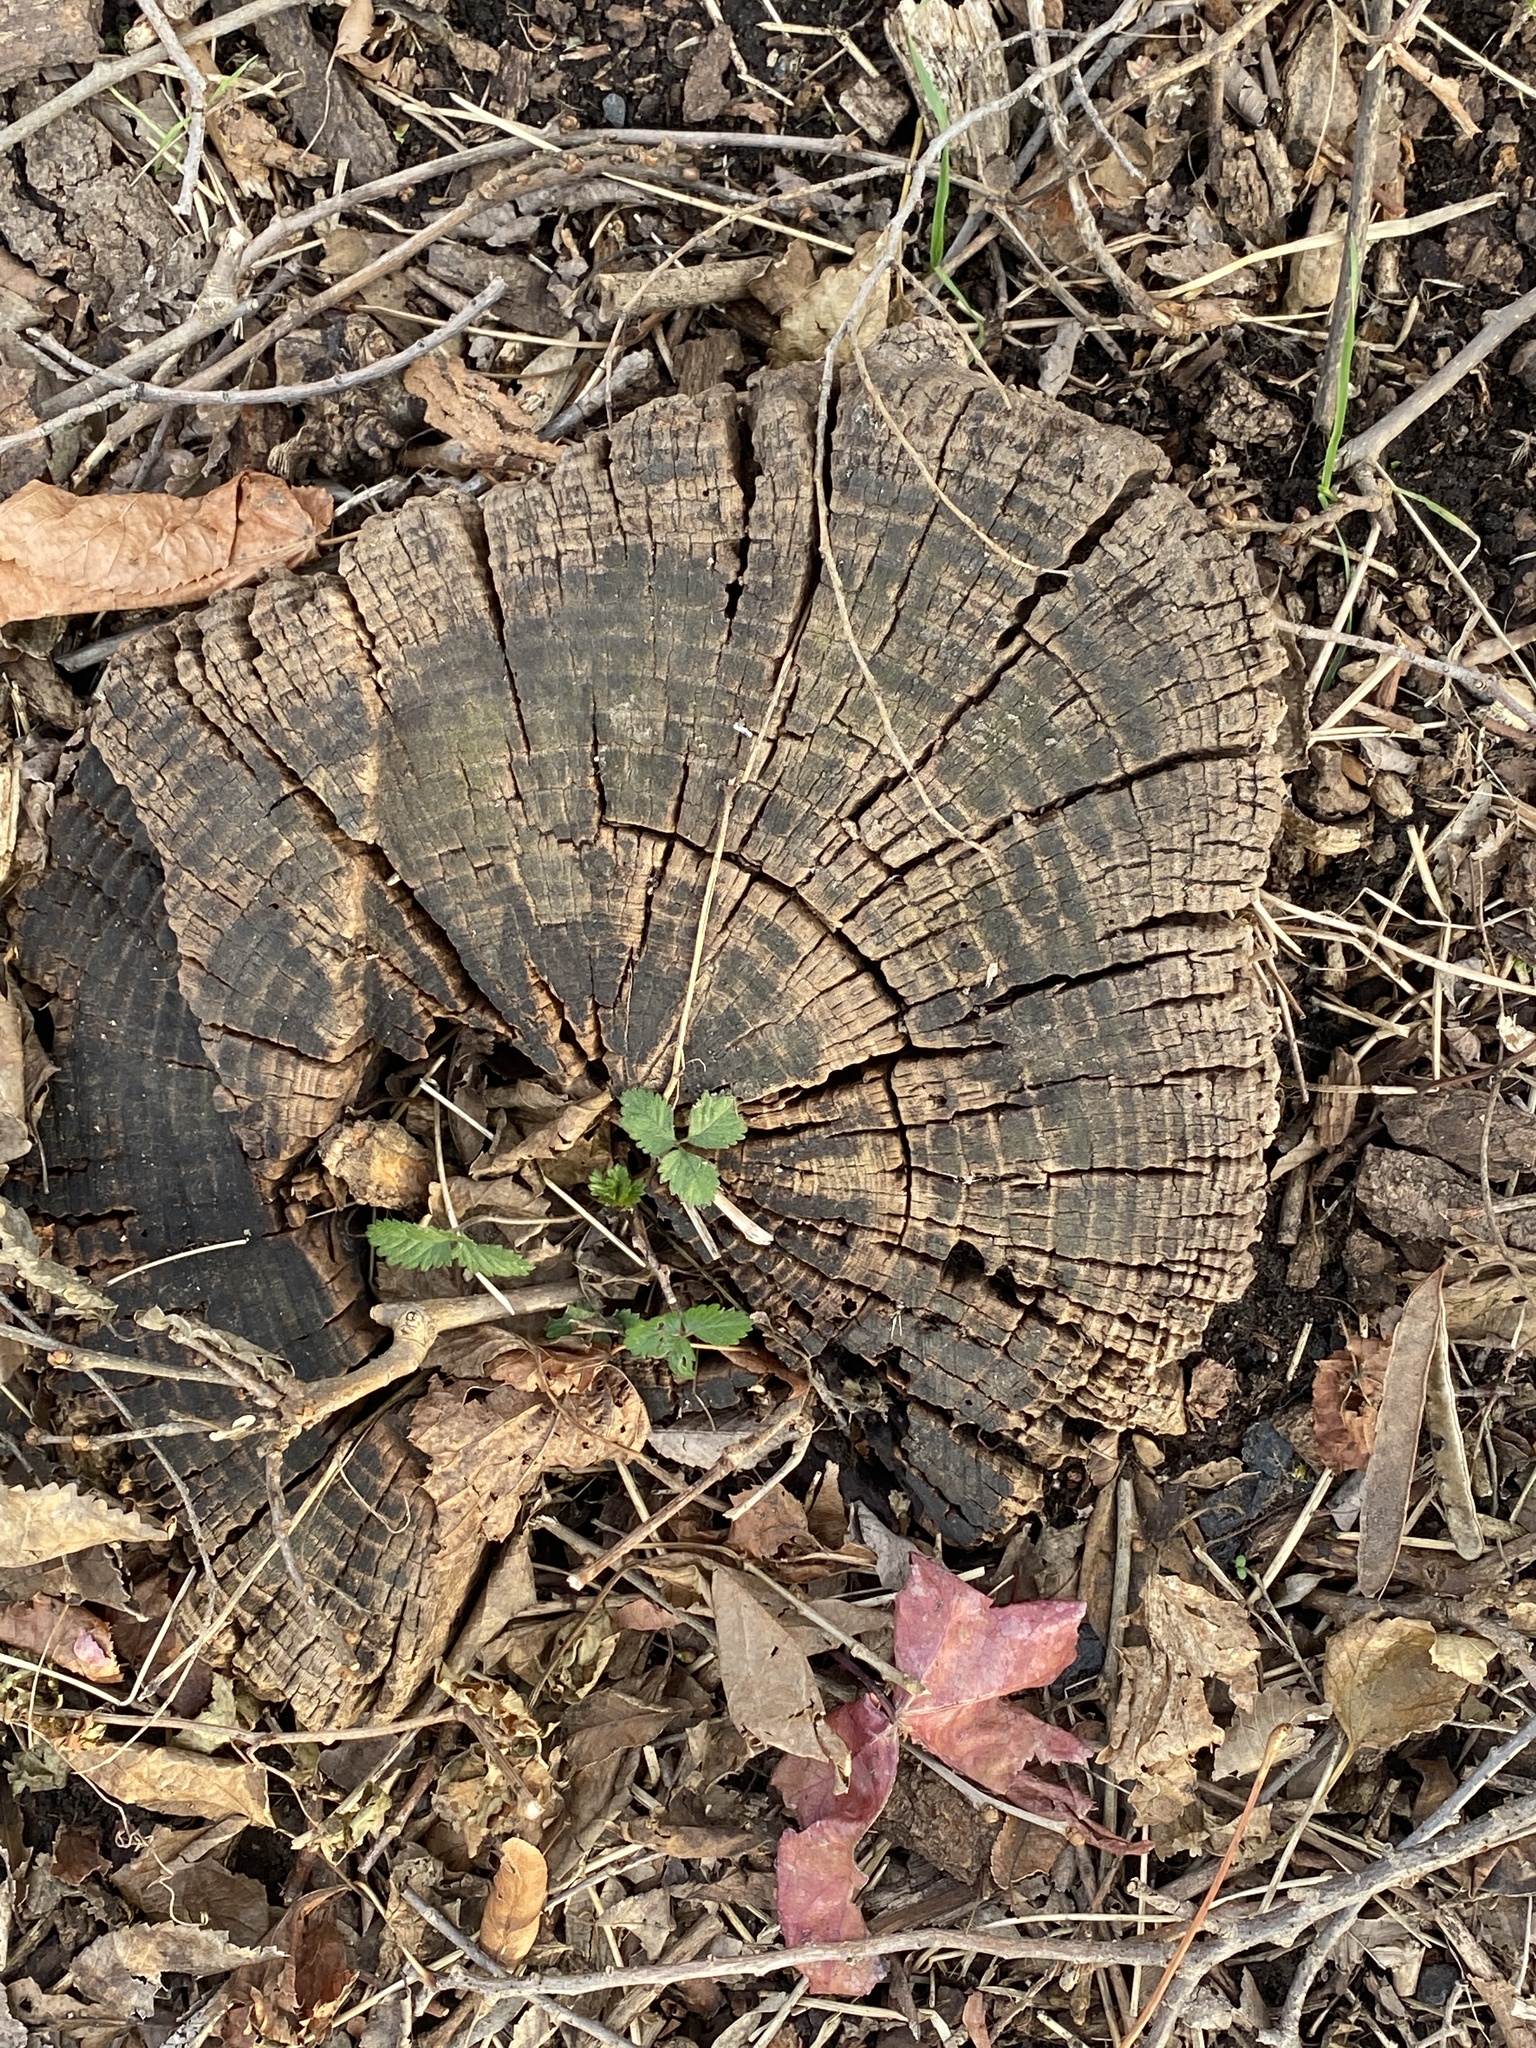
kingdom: Plantae
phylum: Tracheophyta
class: Magnoliopsida
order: Rosales
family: Rosaceae
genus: Potentilla
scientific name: Potentilla indica
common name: Yellow-flowered strawberry
